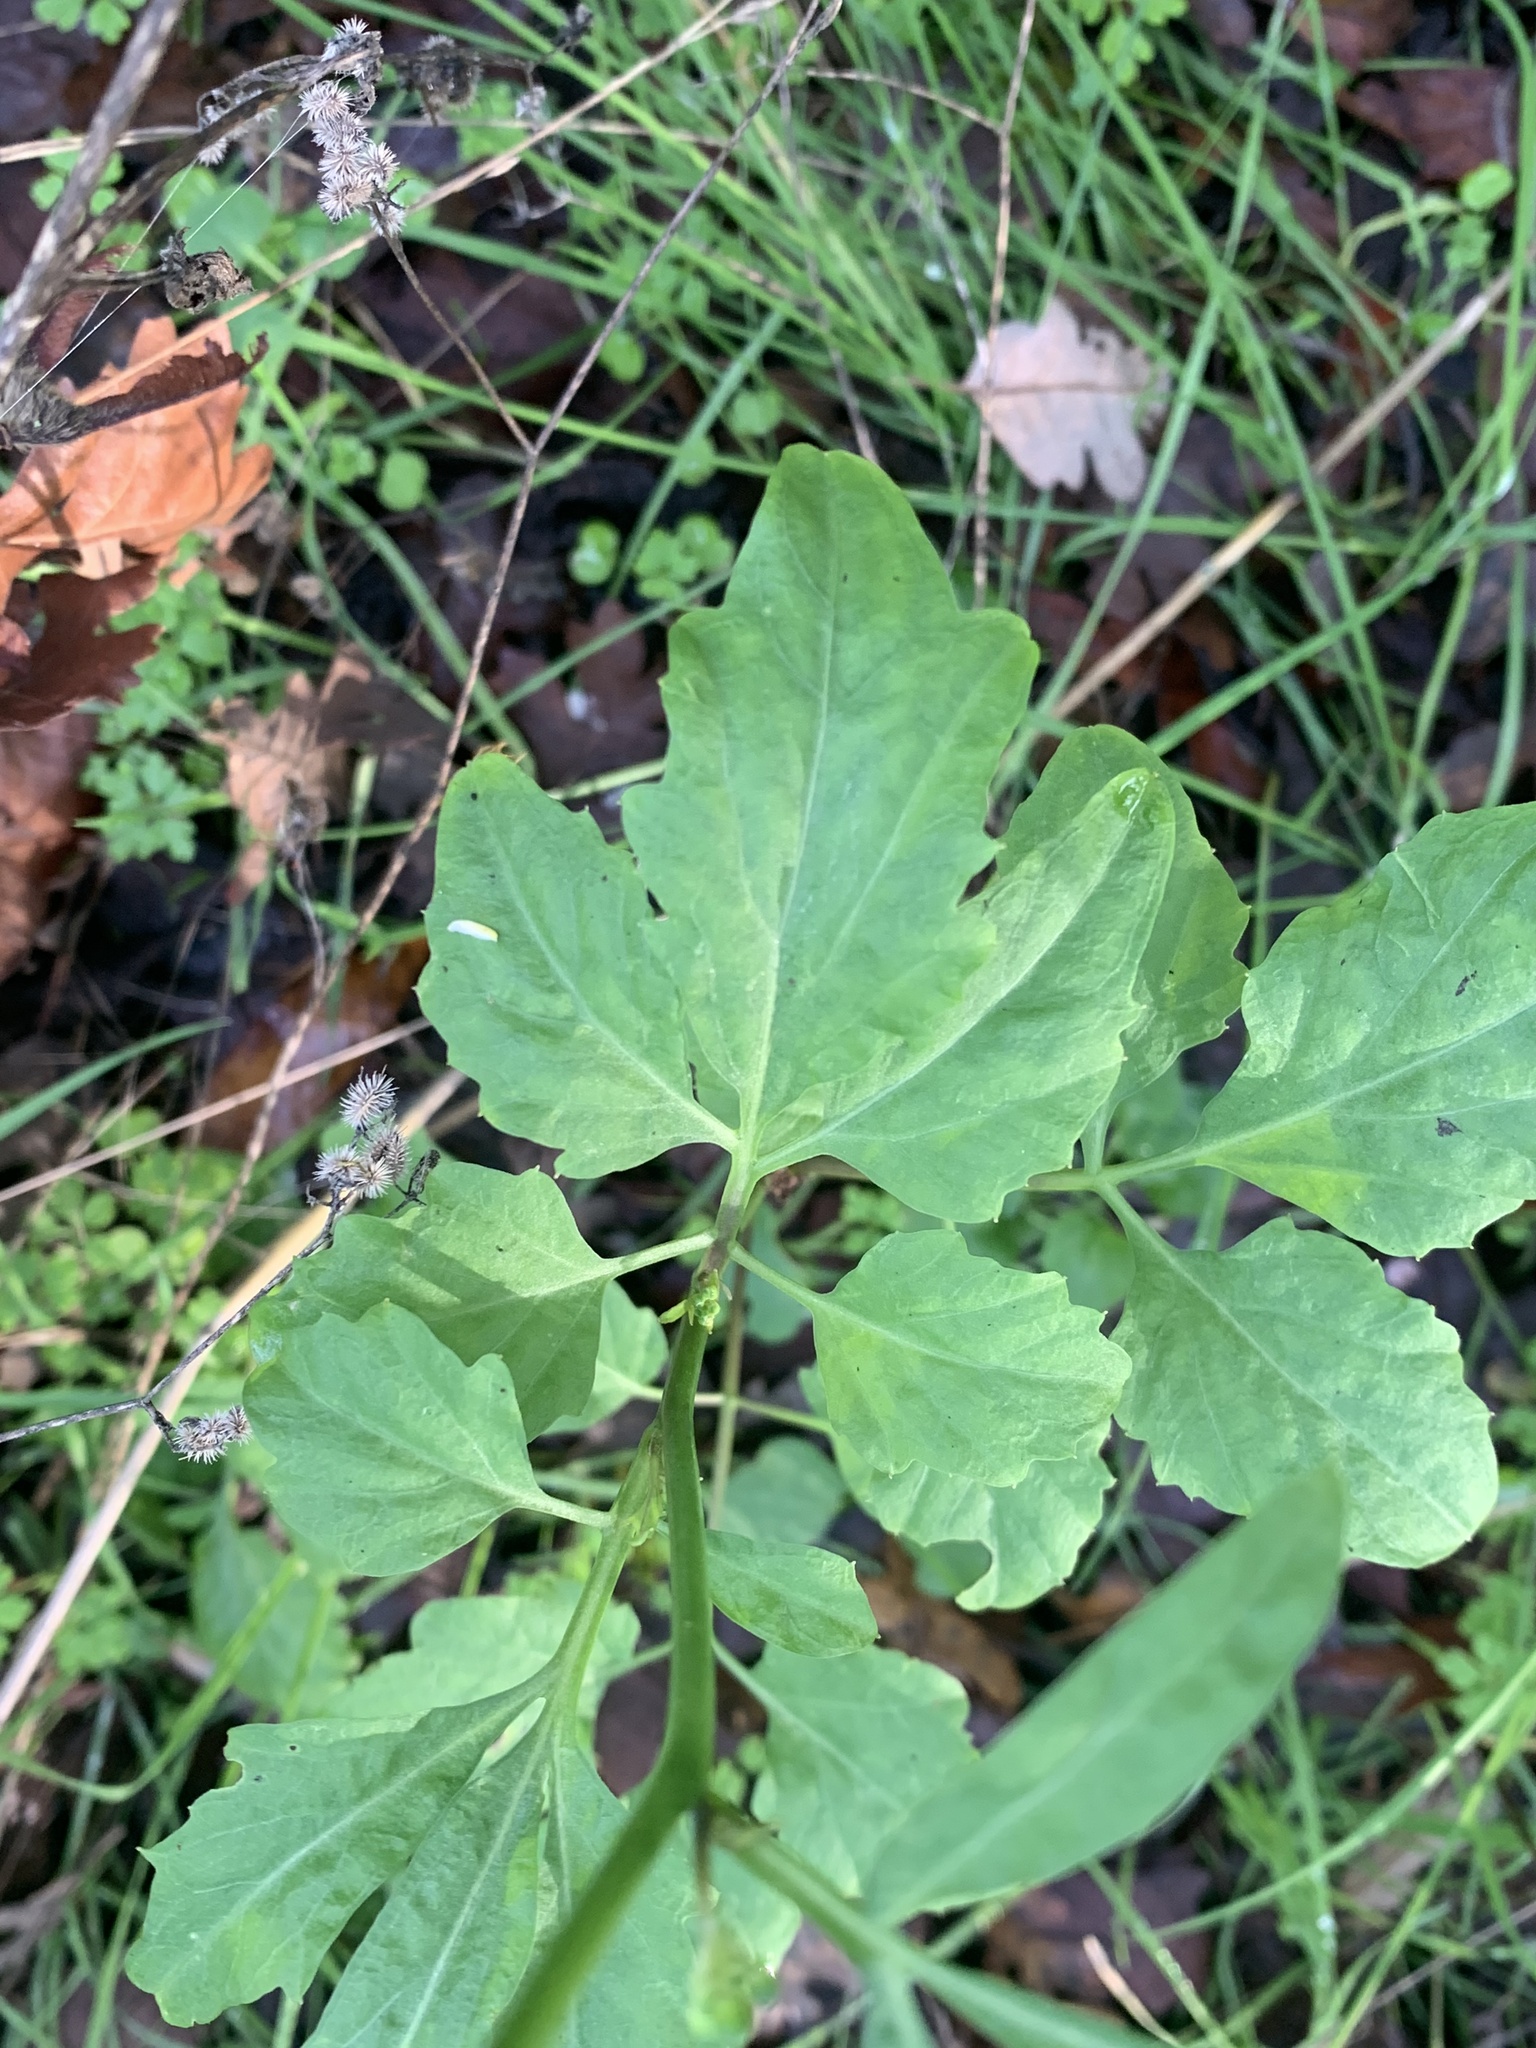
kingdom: Plantae
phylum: Tracheophyta
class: Magnoliopsida
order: Brassicales
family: Brassicaceae
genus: Cardamine
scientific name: Cardamine californica
